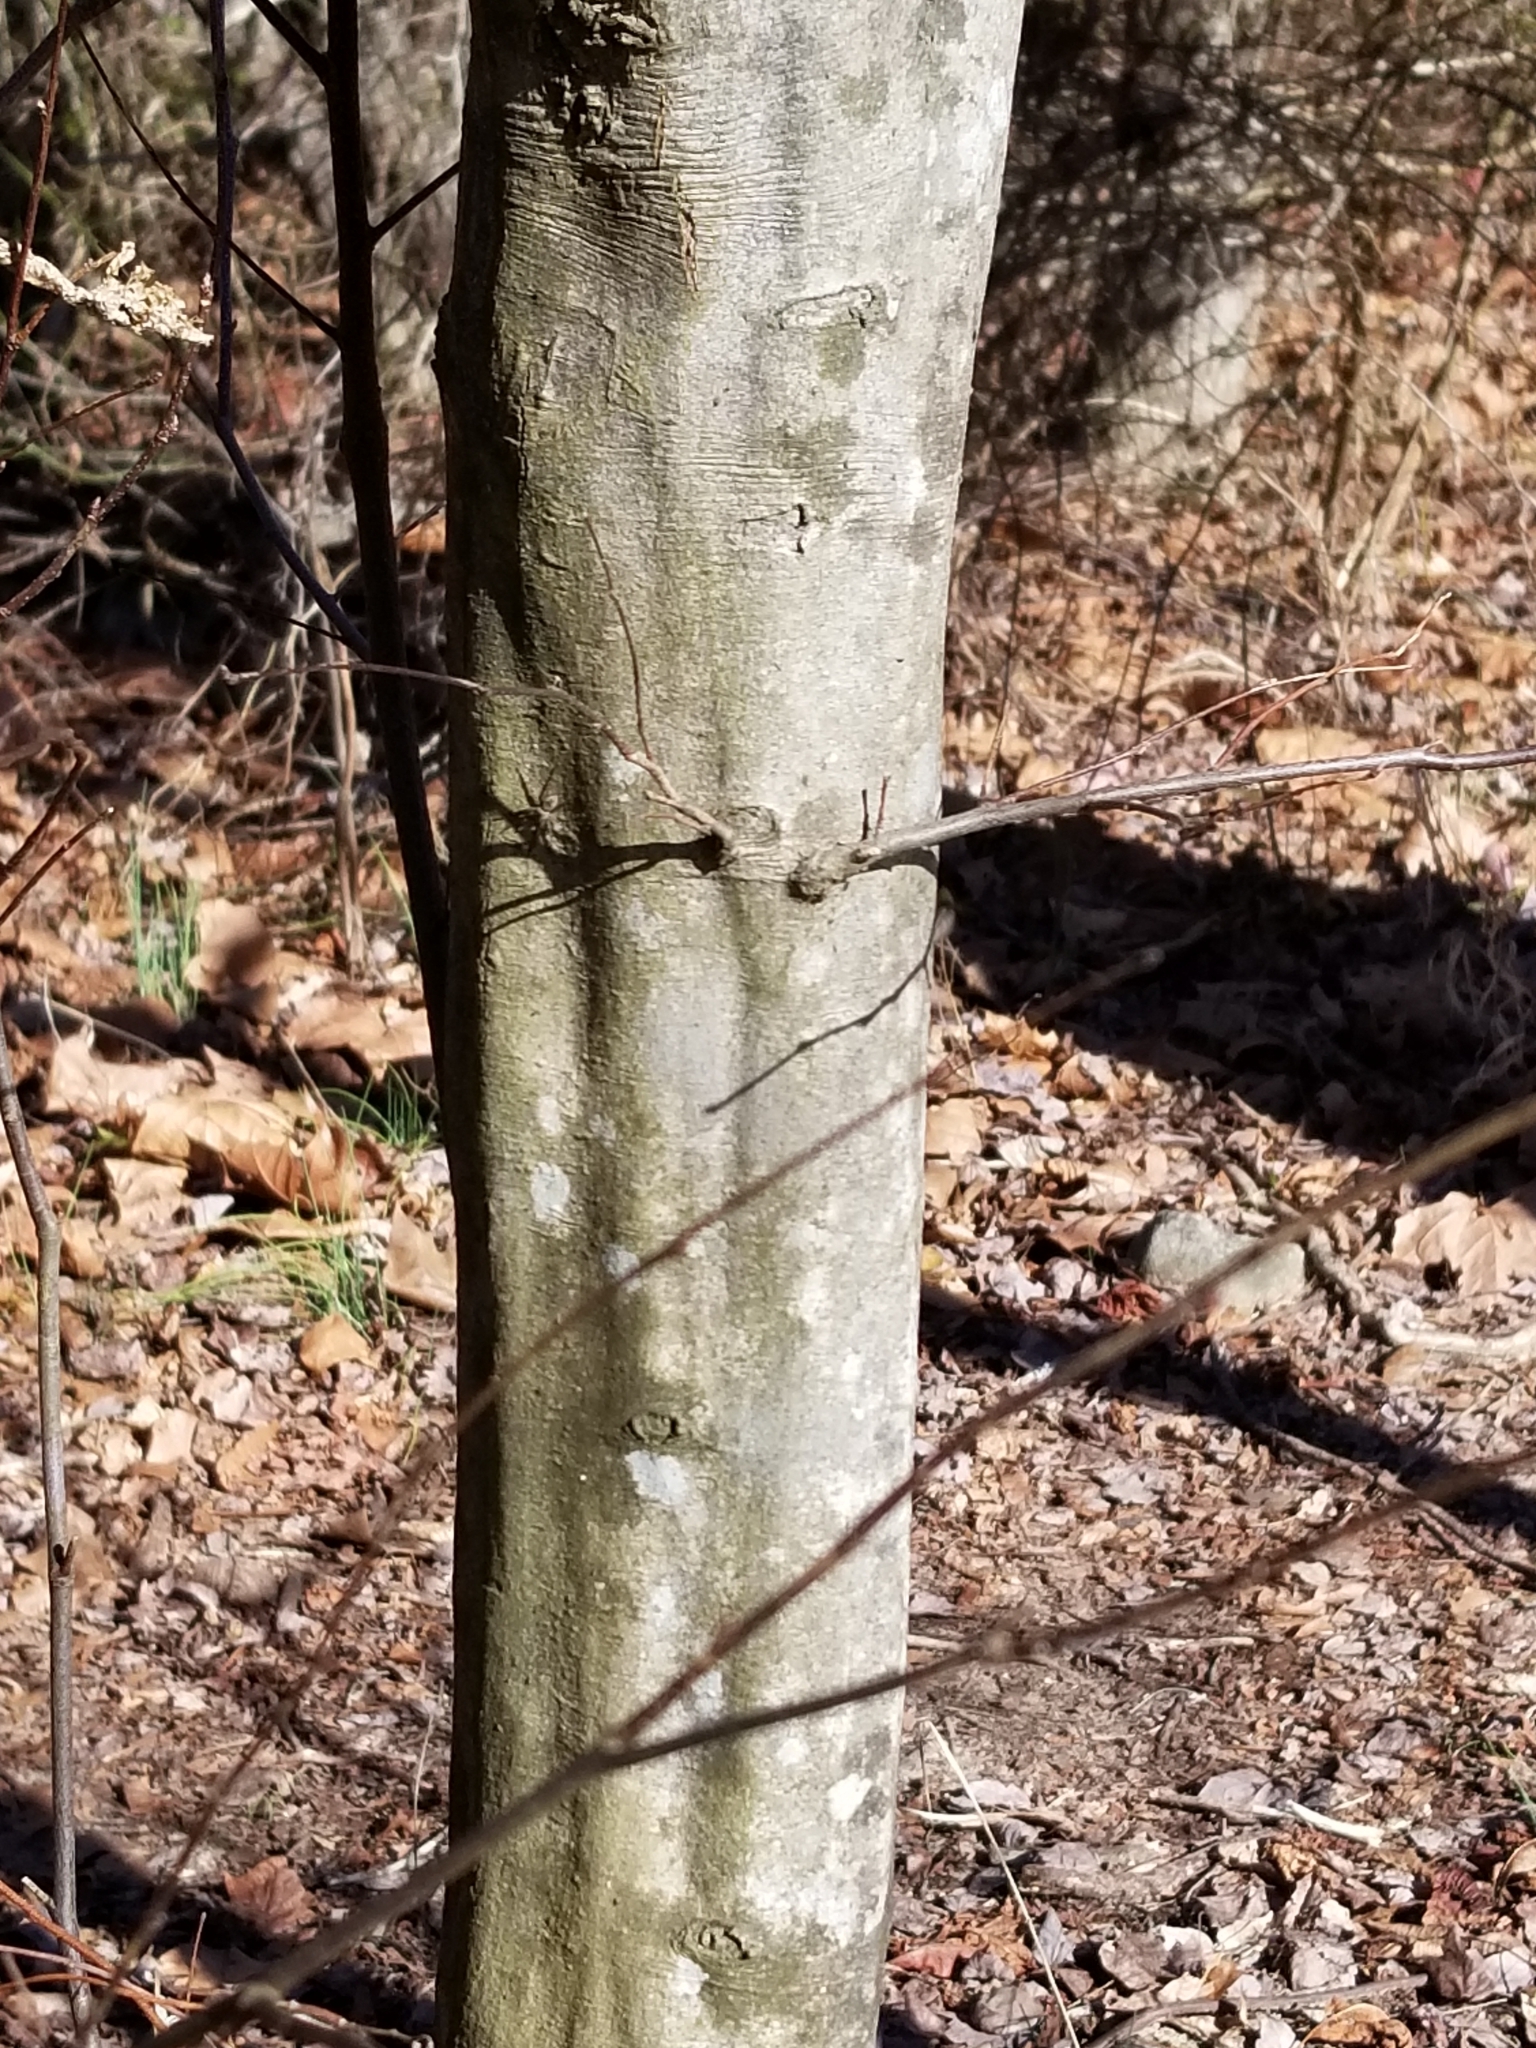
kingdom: Plantae
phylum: Tracheophyta
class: Magnoliopsida
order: Fagales
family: Betulaceae
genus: Carpinus
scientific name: Carpinus caroliniana
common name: American hornbeam
